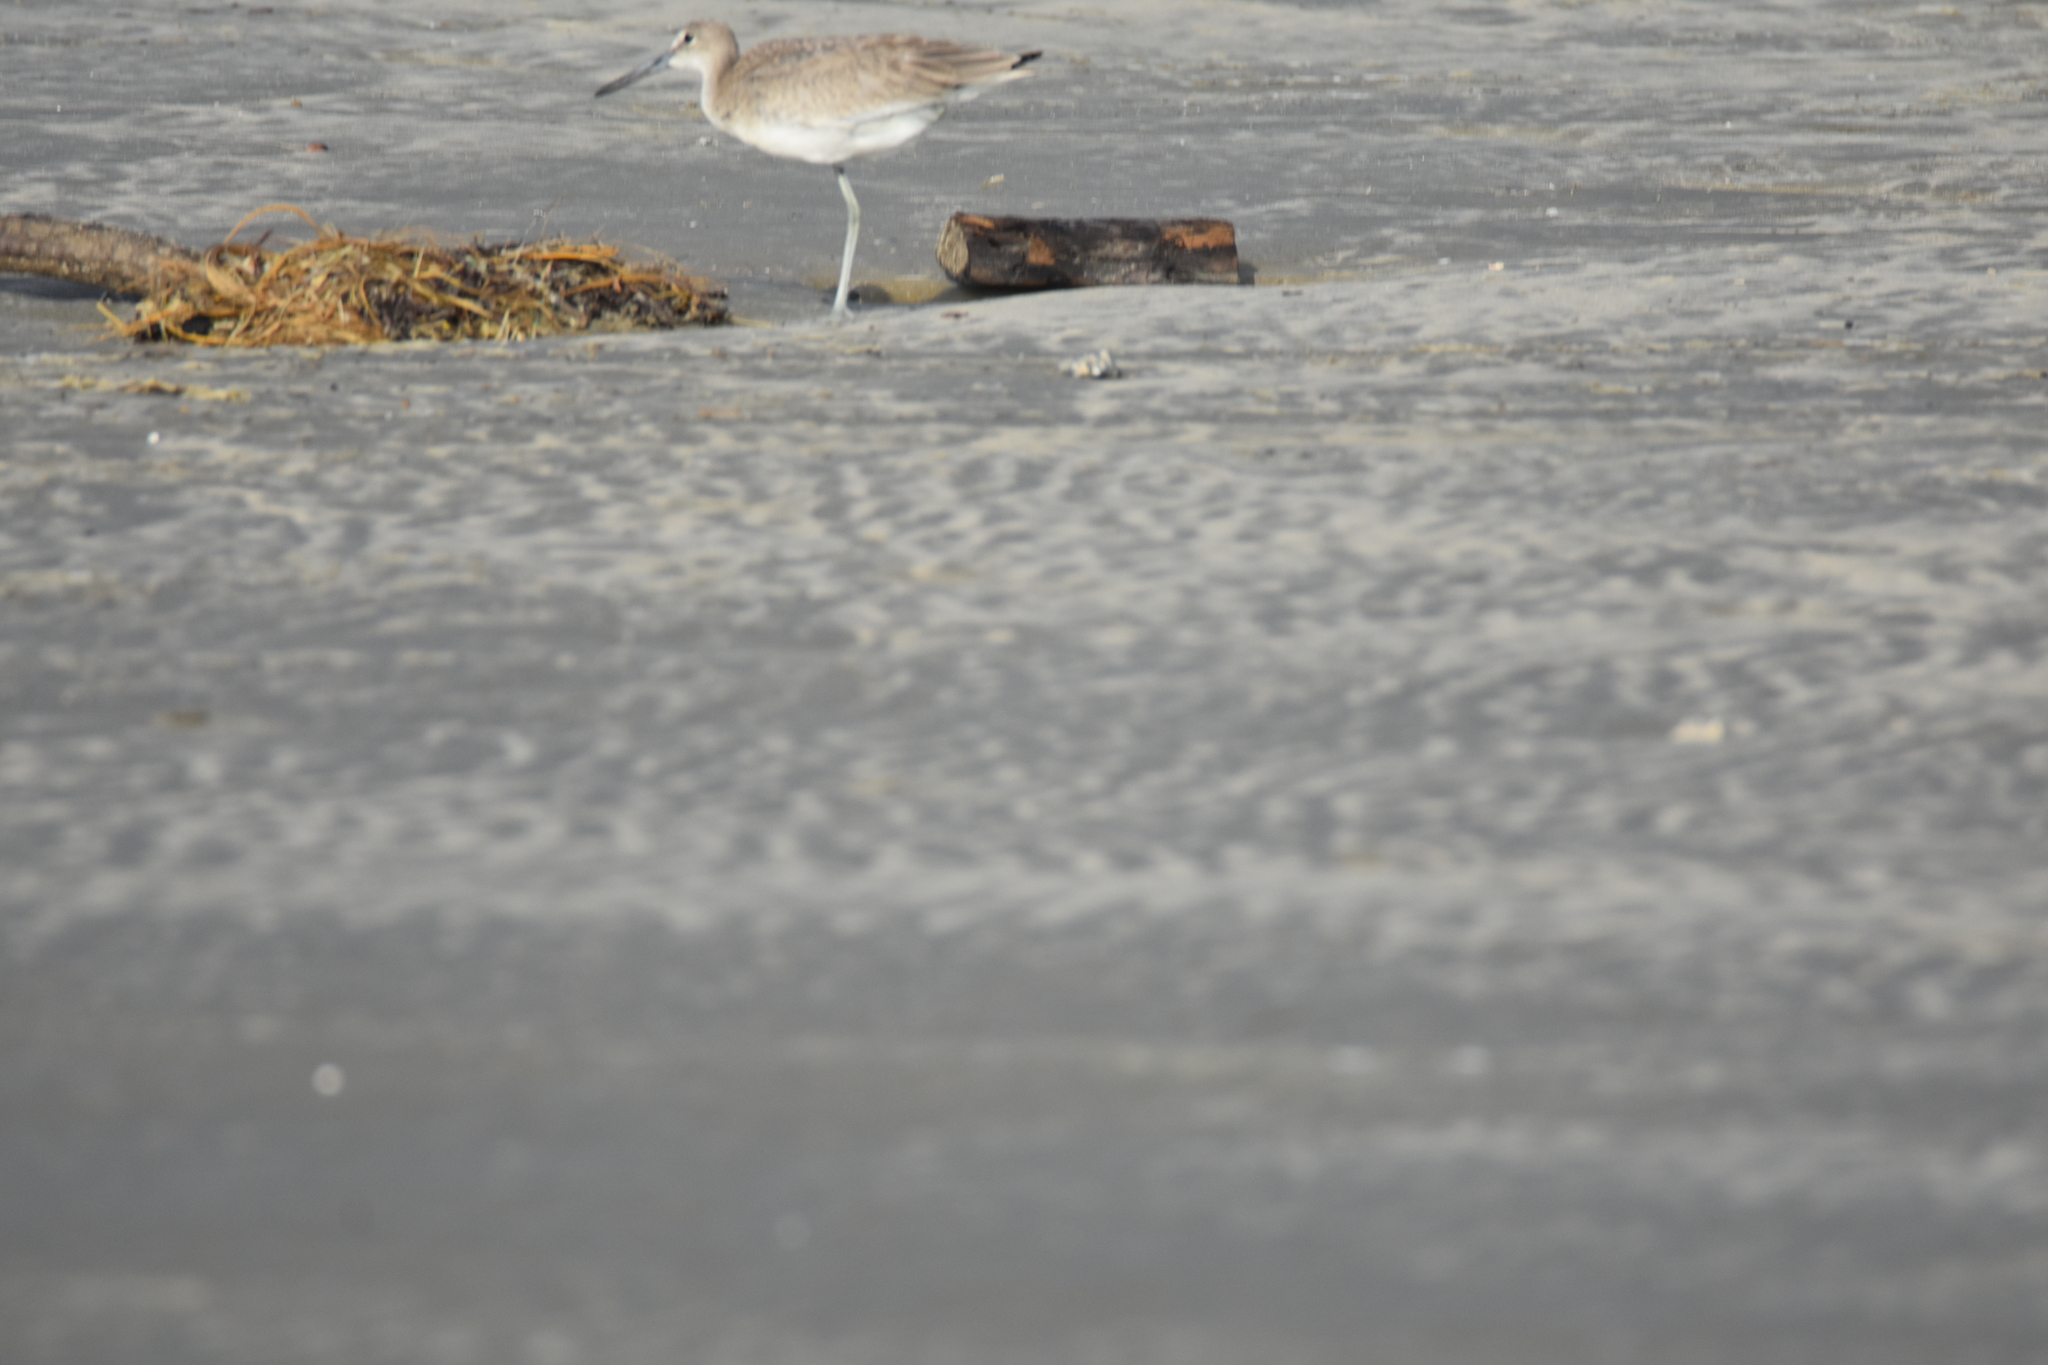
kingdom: Animalia
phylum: Chordata
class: Aves
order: Charadriiformes
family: Scolopacidae
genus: Tringa
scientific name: Tringa semipalmata
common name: Willet
